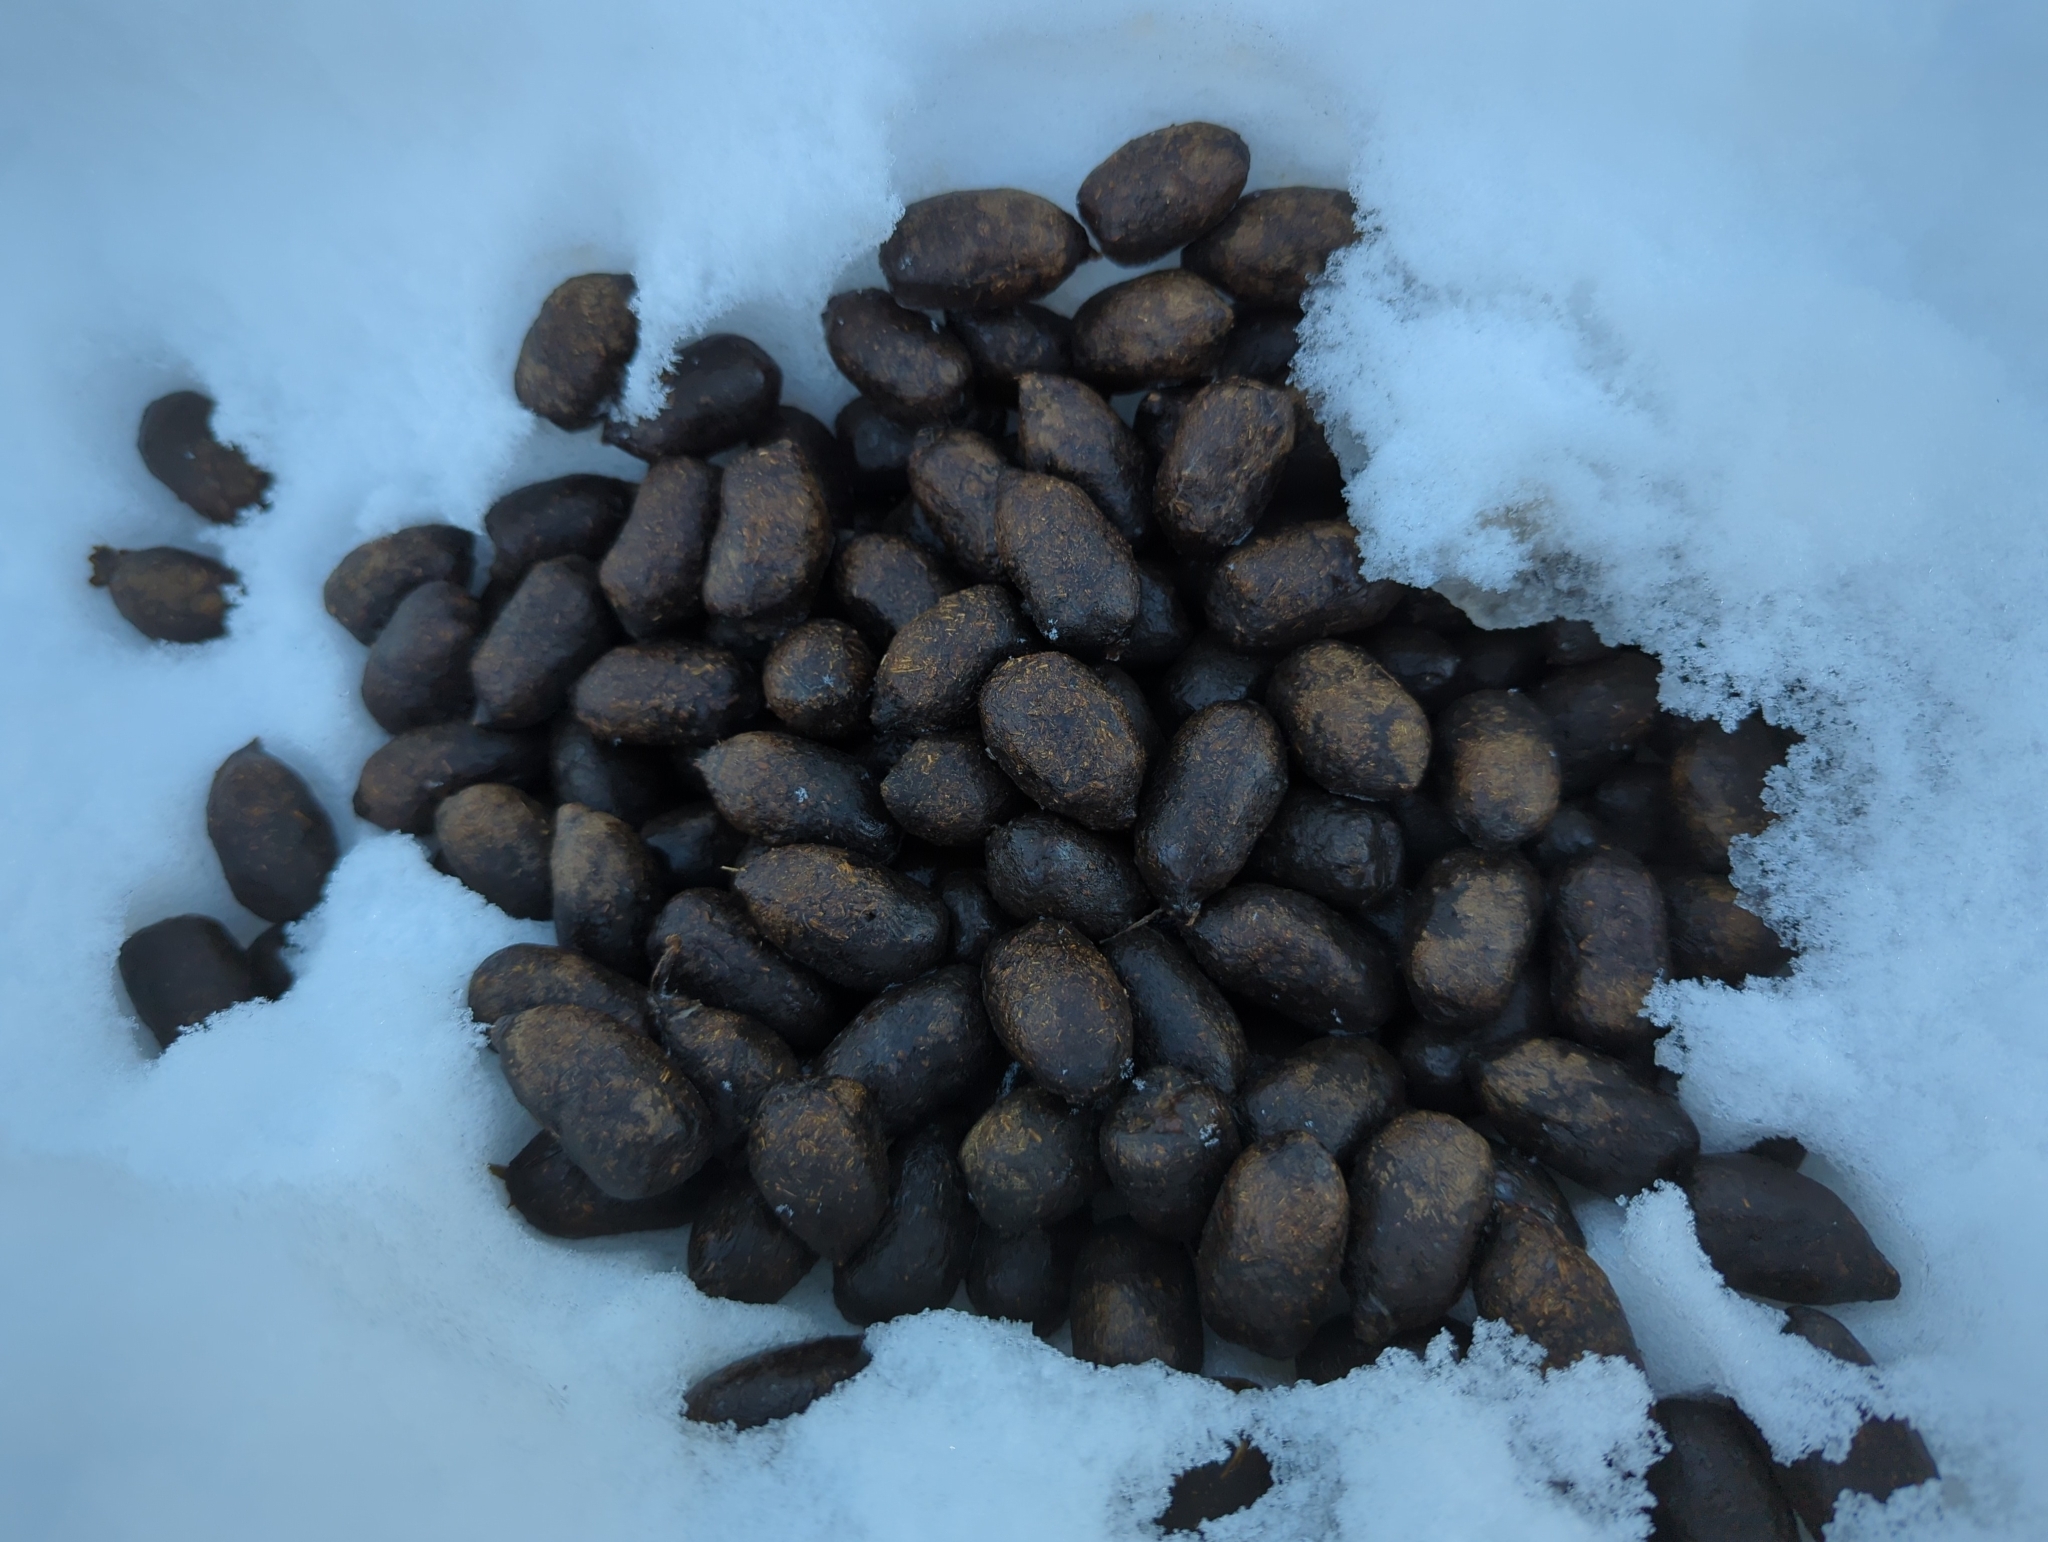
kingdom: Animalia
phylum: Chordata
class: Mammalia
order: Artiodactyla
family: Cervidae
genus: Alces
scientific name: Alces alces
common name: Moose
